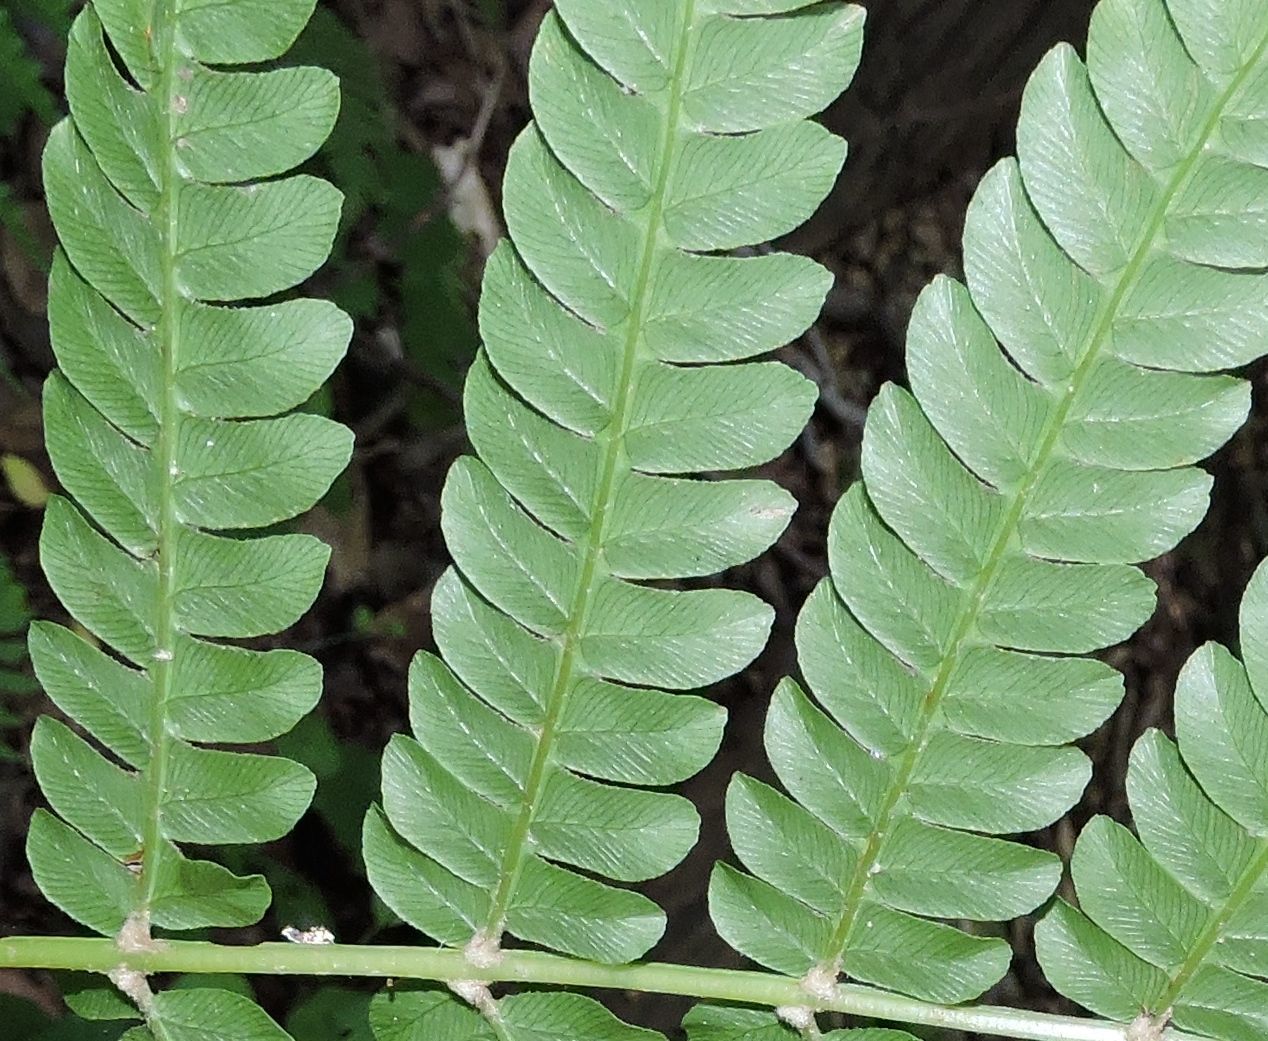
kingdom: Plantae
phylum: Tracheophyta
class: Polypodiopsida
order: Osmundales
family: Osmundaceae
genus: Osmundastrum
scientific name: Osmundastrum cinnamomeum
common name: Cinnamon fern
